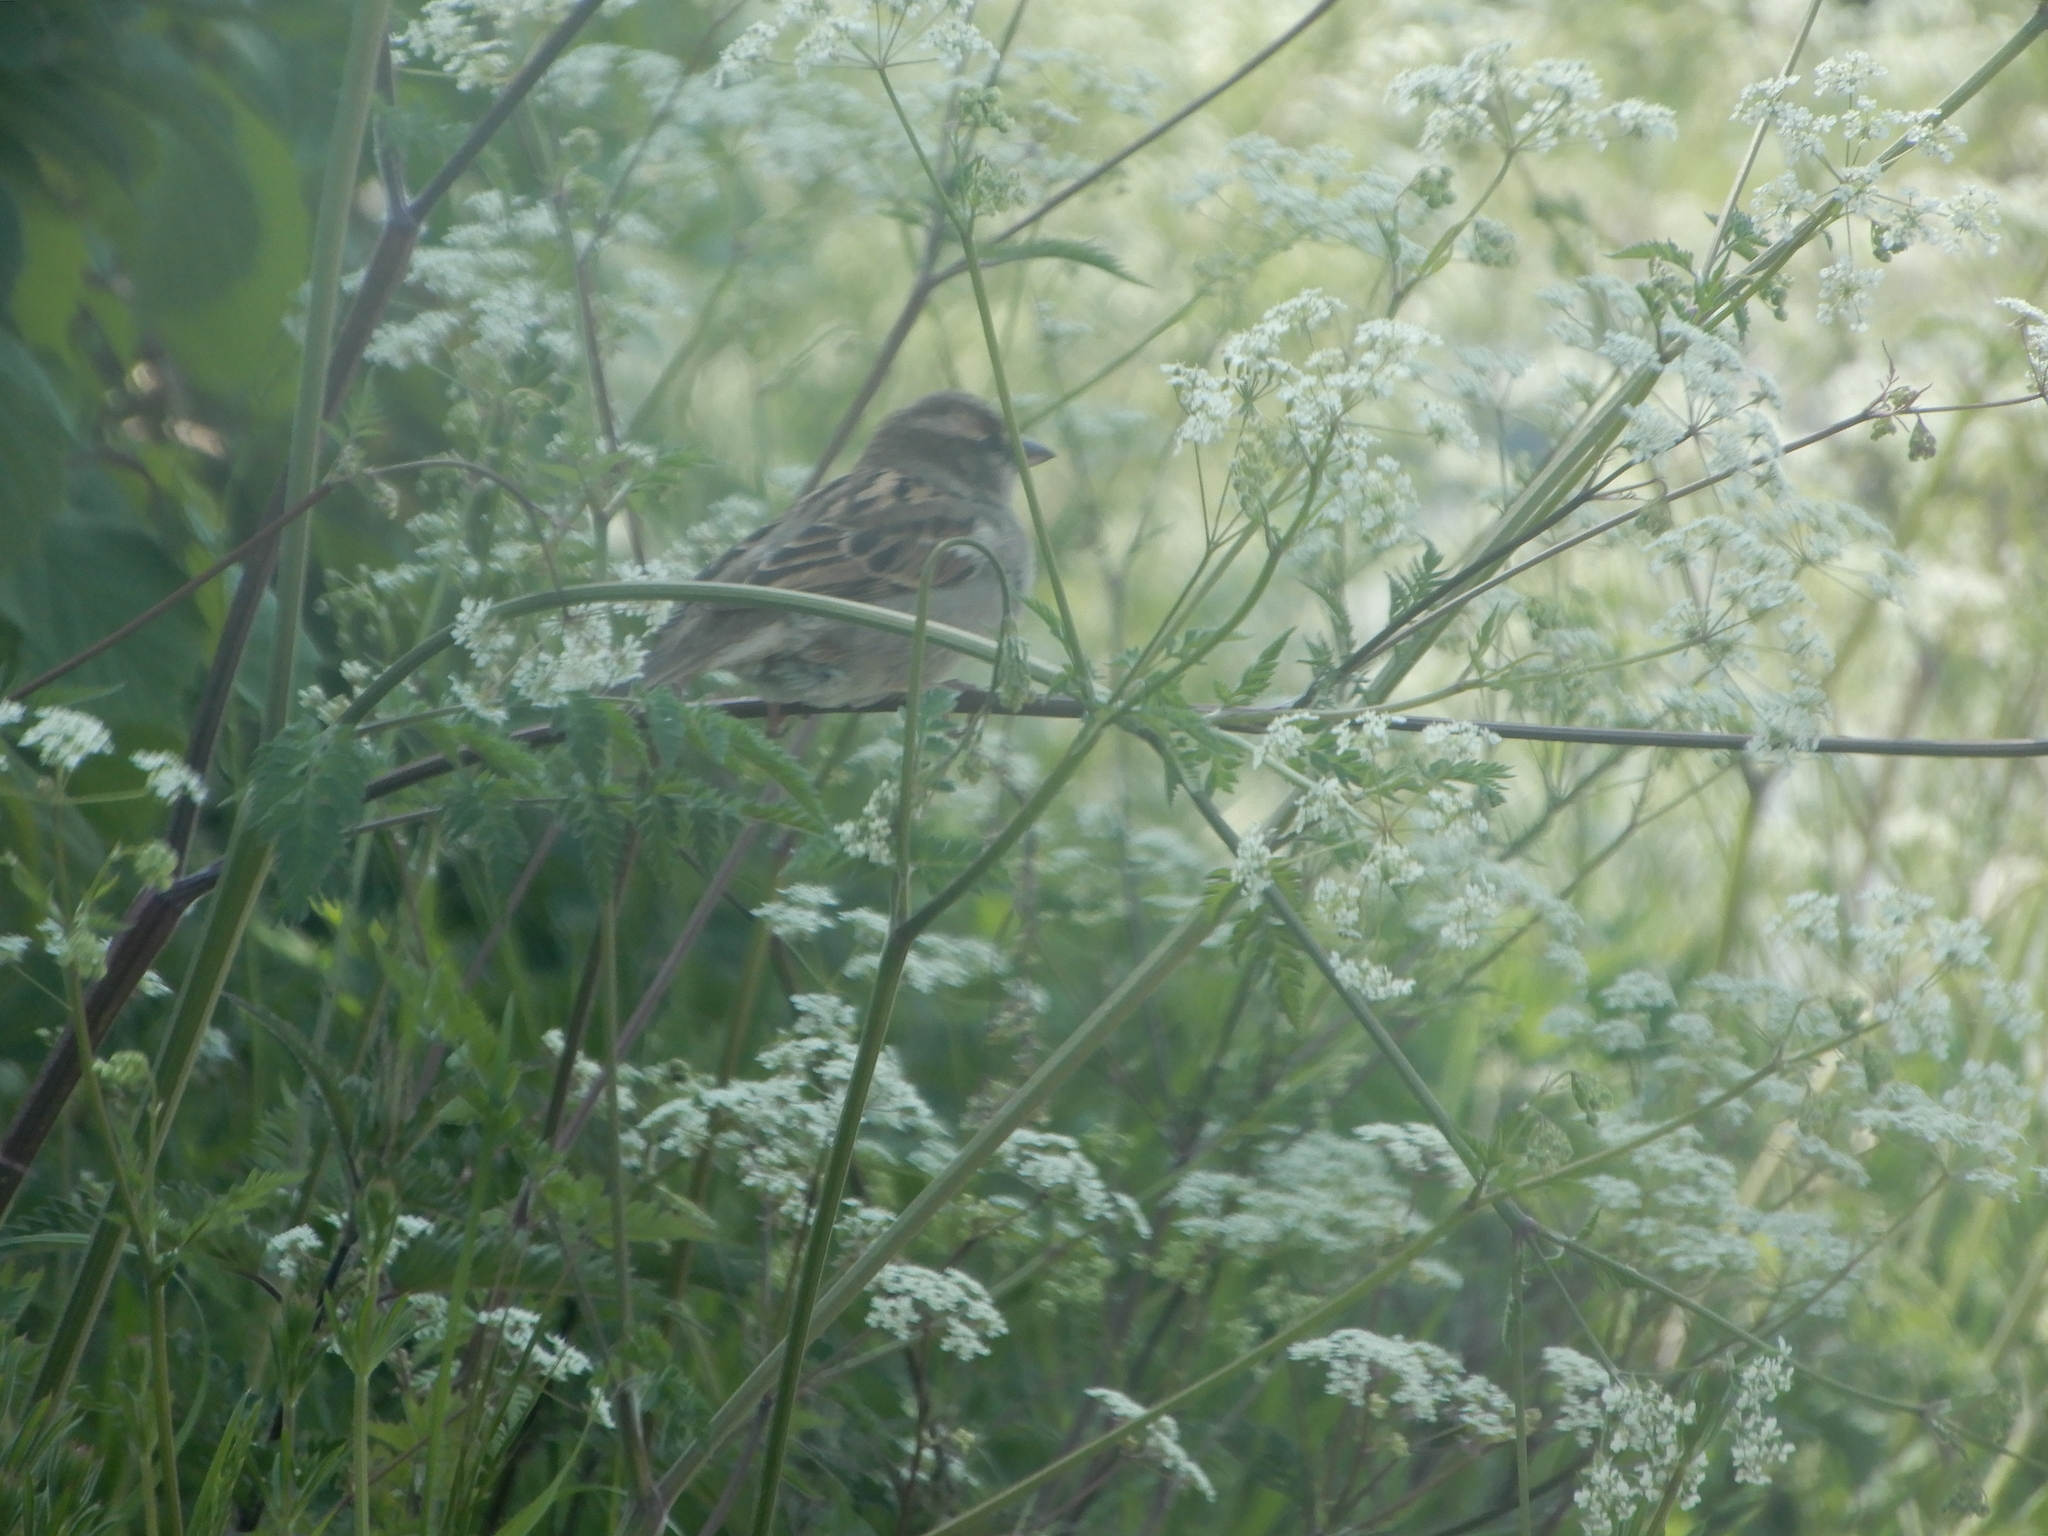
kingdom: Animalia
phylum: Chordata
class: Aves
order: Passeriformes
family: Passeridae
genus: Passer
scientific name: Passer domesticus
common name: House sparrow
